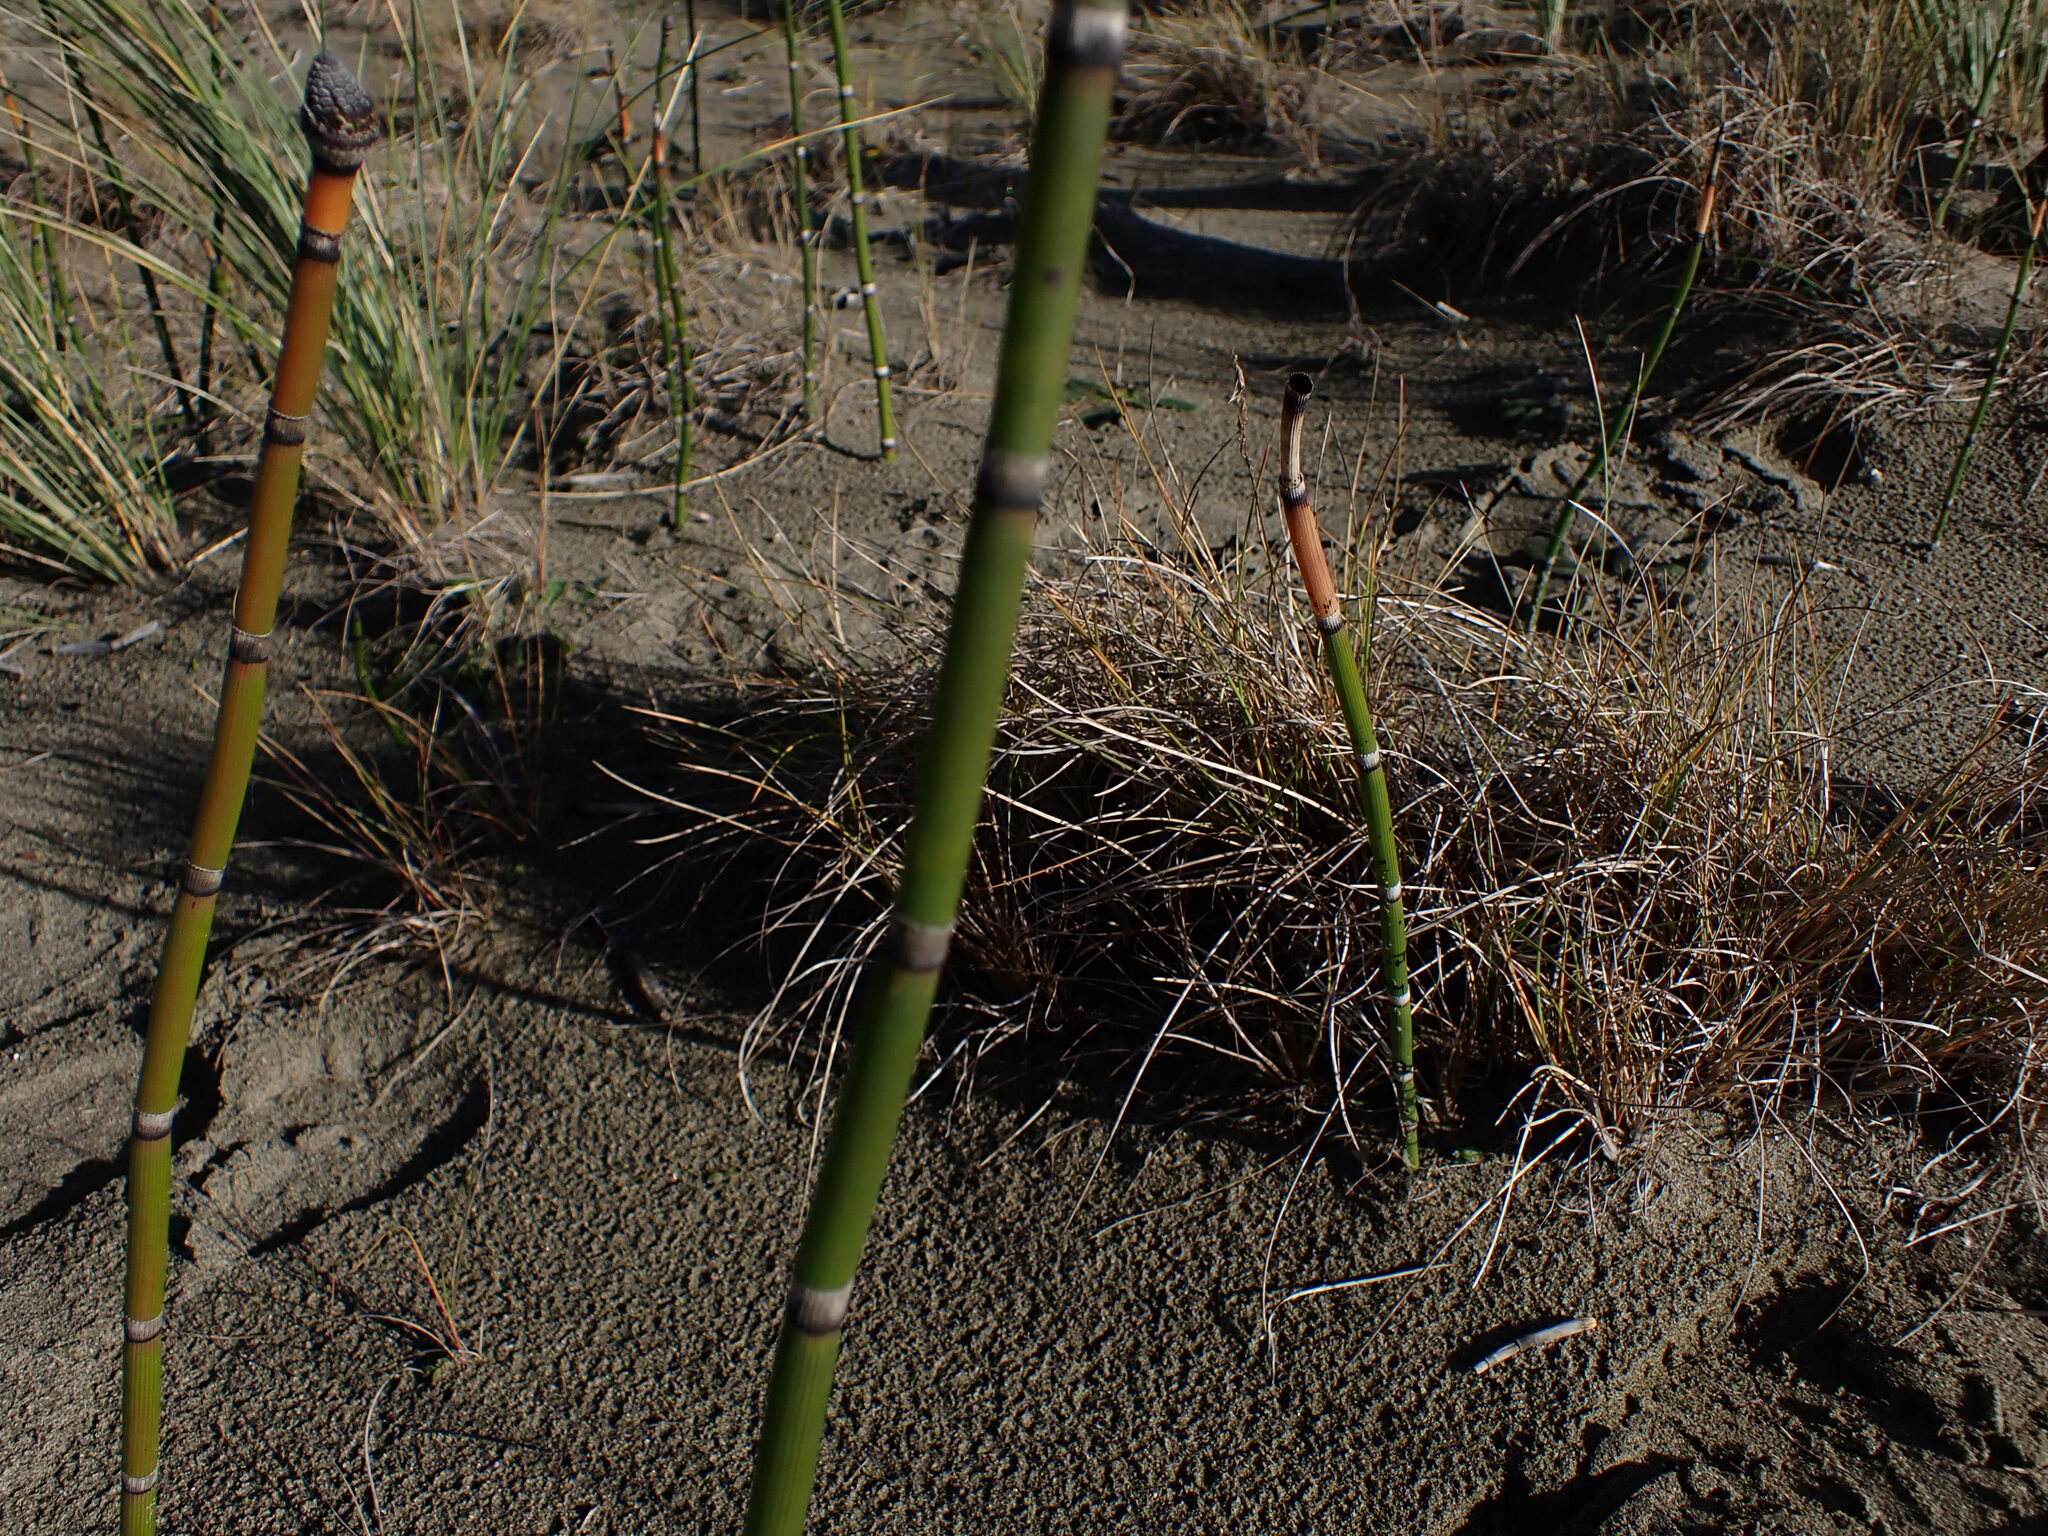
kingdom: Plantae
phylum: Tracheophyta
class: Polypodiopsida
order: Equisetales
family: Equisetaceae
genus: Equisetum
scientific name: Equisetum hyemale
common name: Rough horsetail
